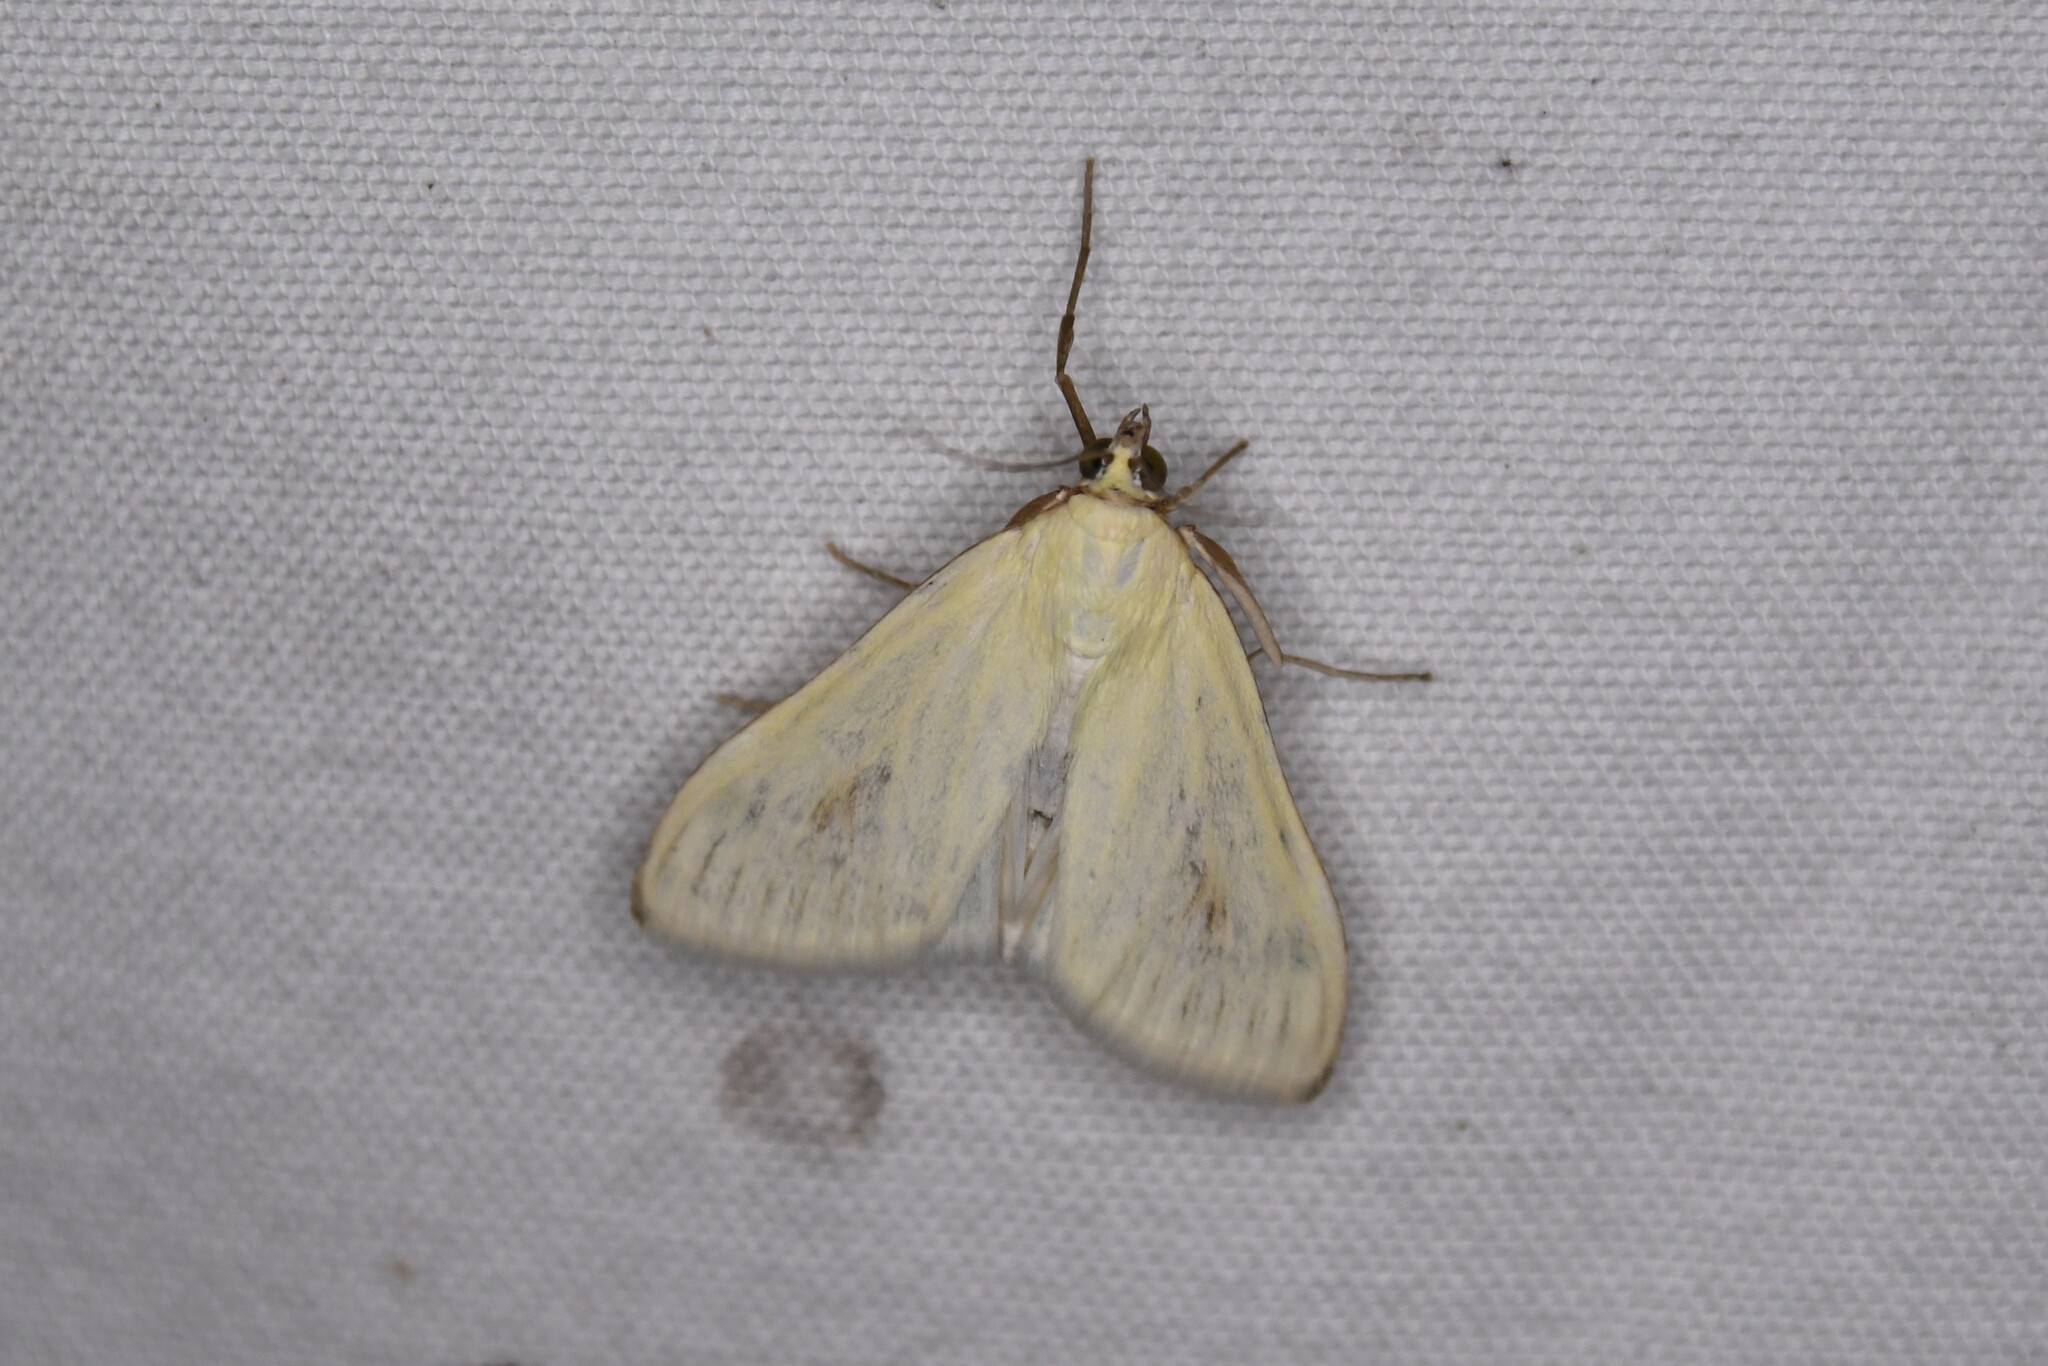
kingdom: Animalia
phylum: Arthropoda
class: Insecta
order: Lepidoptera
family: Crambidae
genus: Sitochroa
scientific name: Sitochroa palealis
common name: Greenish-yellow sitochroa moth
